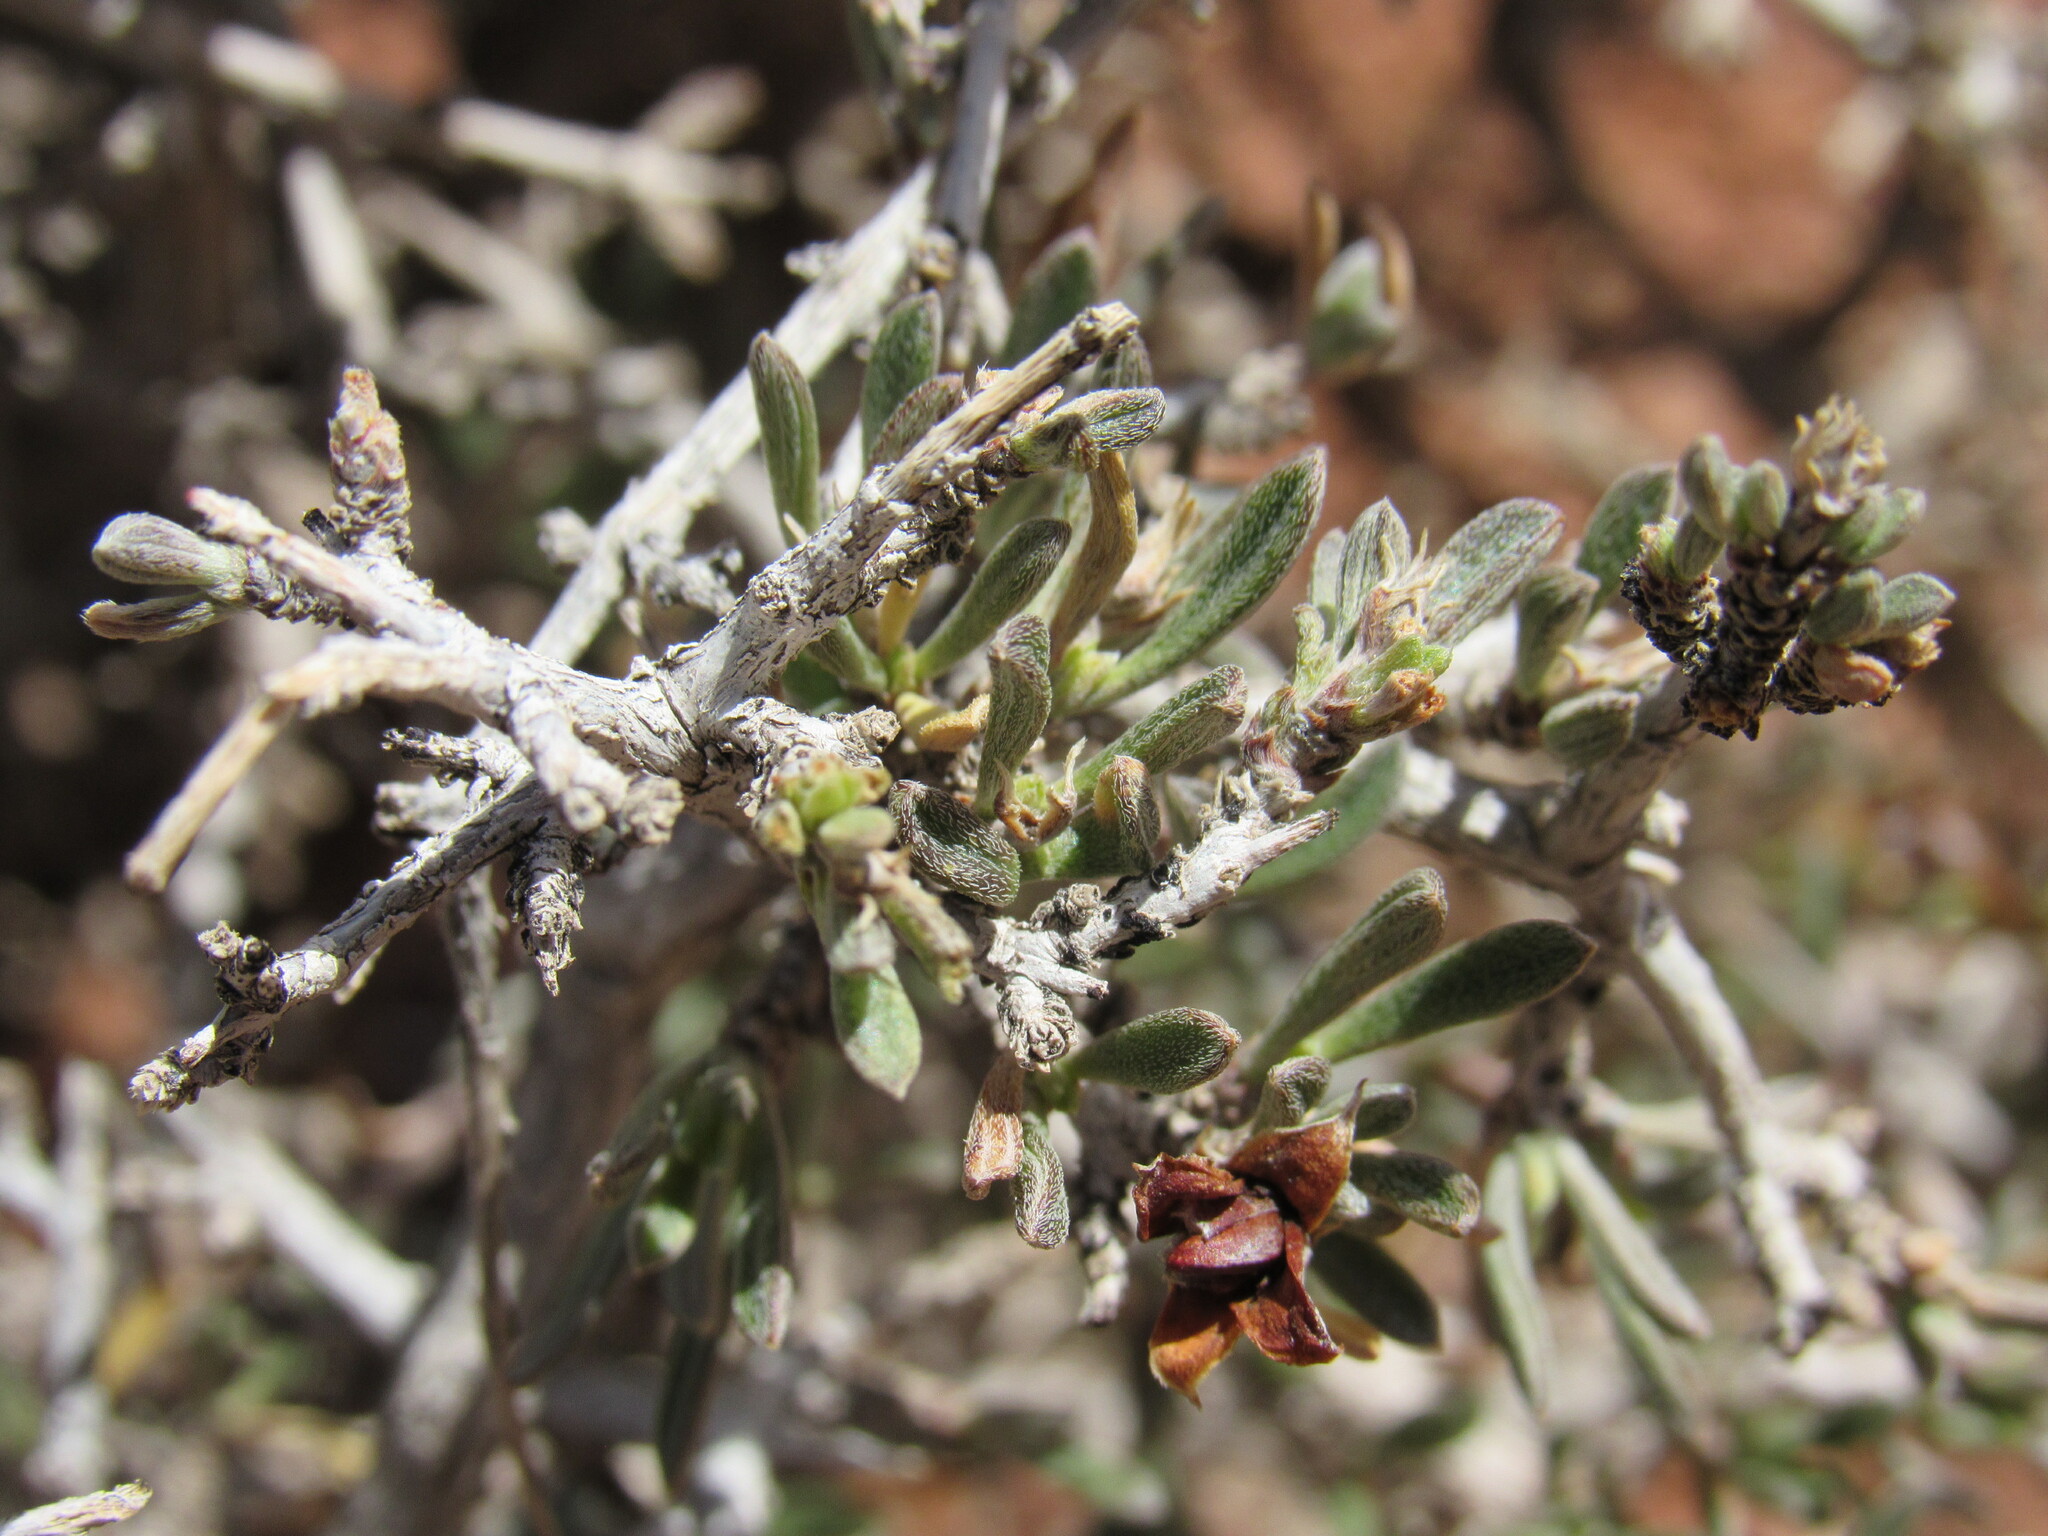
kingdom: Plantae
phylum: Tracheophyta
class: Magnoliopsida
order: Rosales
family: Rosaceae
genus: Coleogyne
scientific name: Coleogyne ramosissima
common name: Blackbrush
